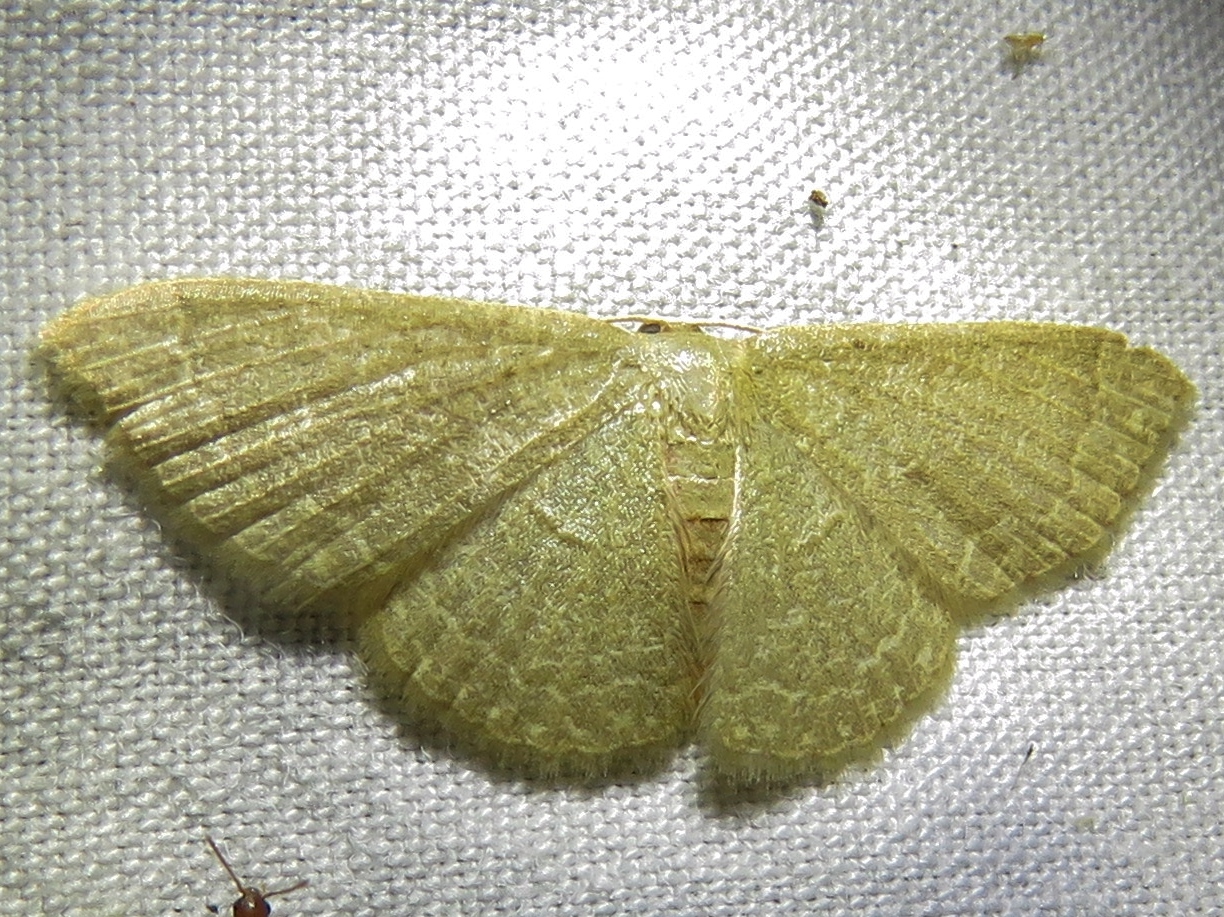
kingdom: Animalia
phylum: Arthropoda
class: Insecta
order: Lepidoptera
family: Geometridae
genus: Pleuroprucha
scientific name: Pleuroprucha insulsaria
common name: Common tan wave
